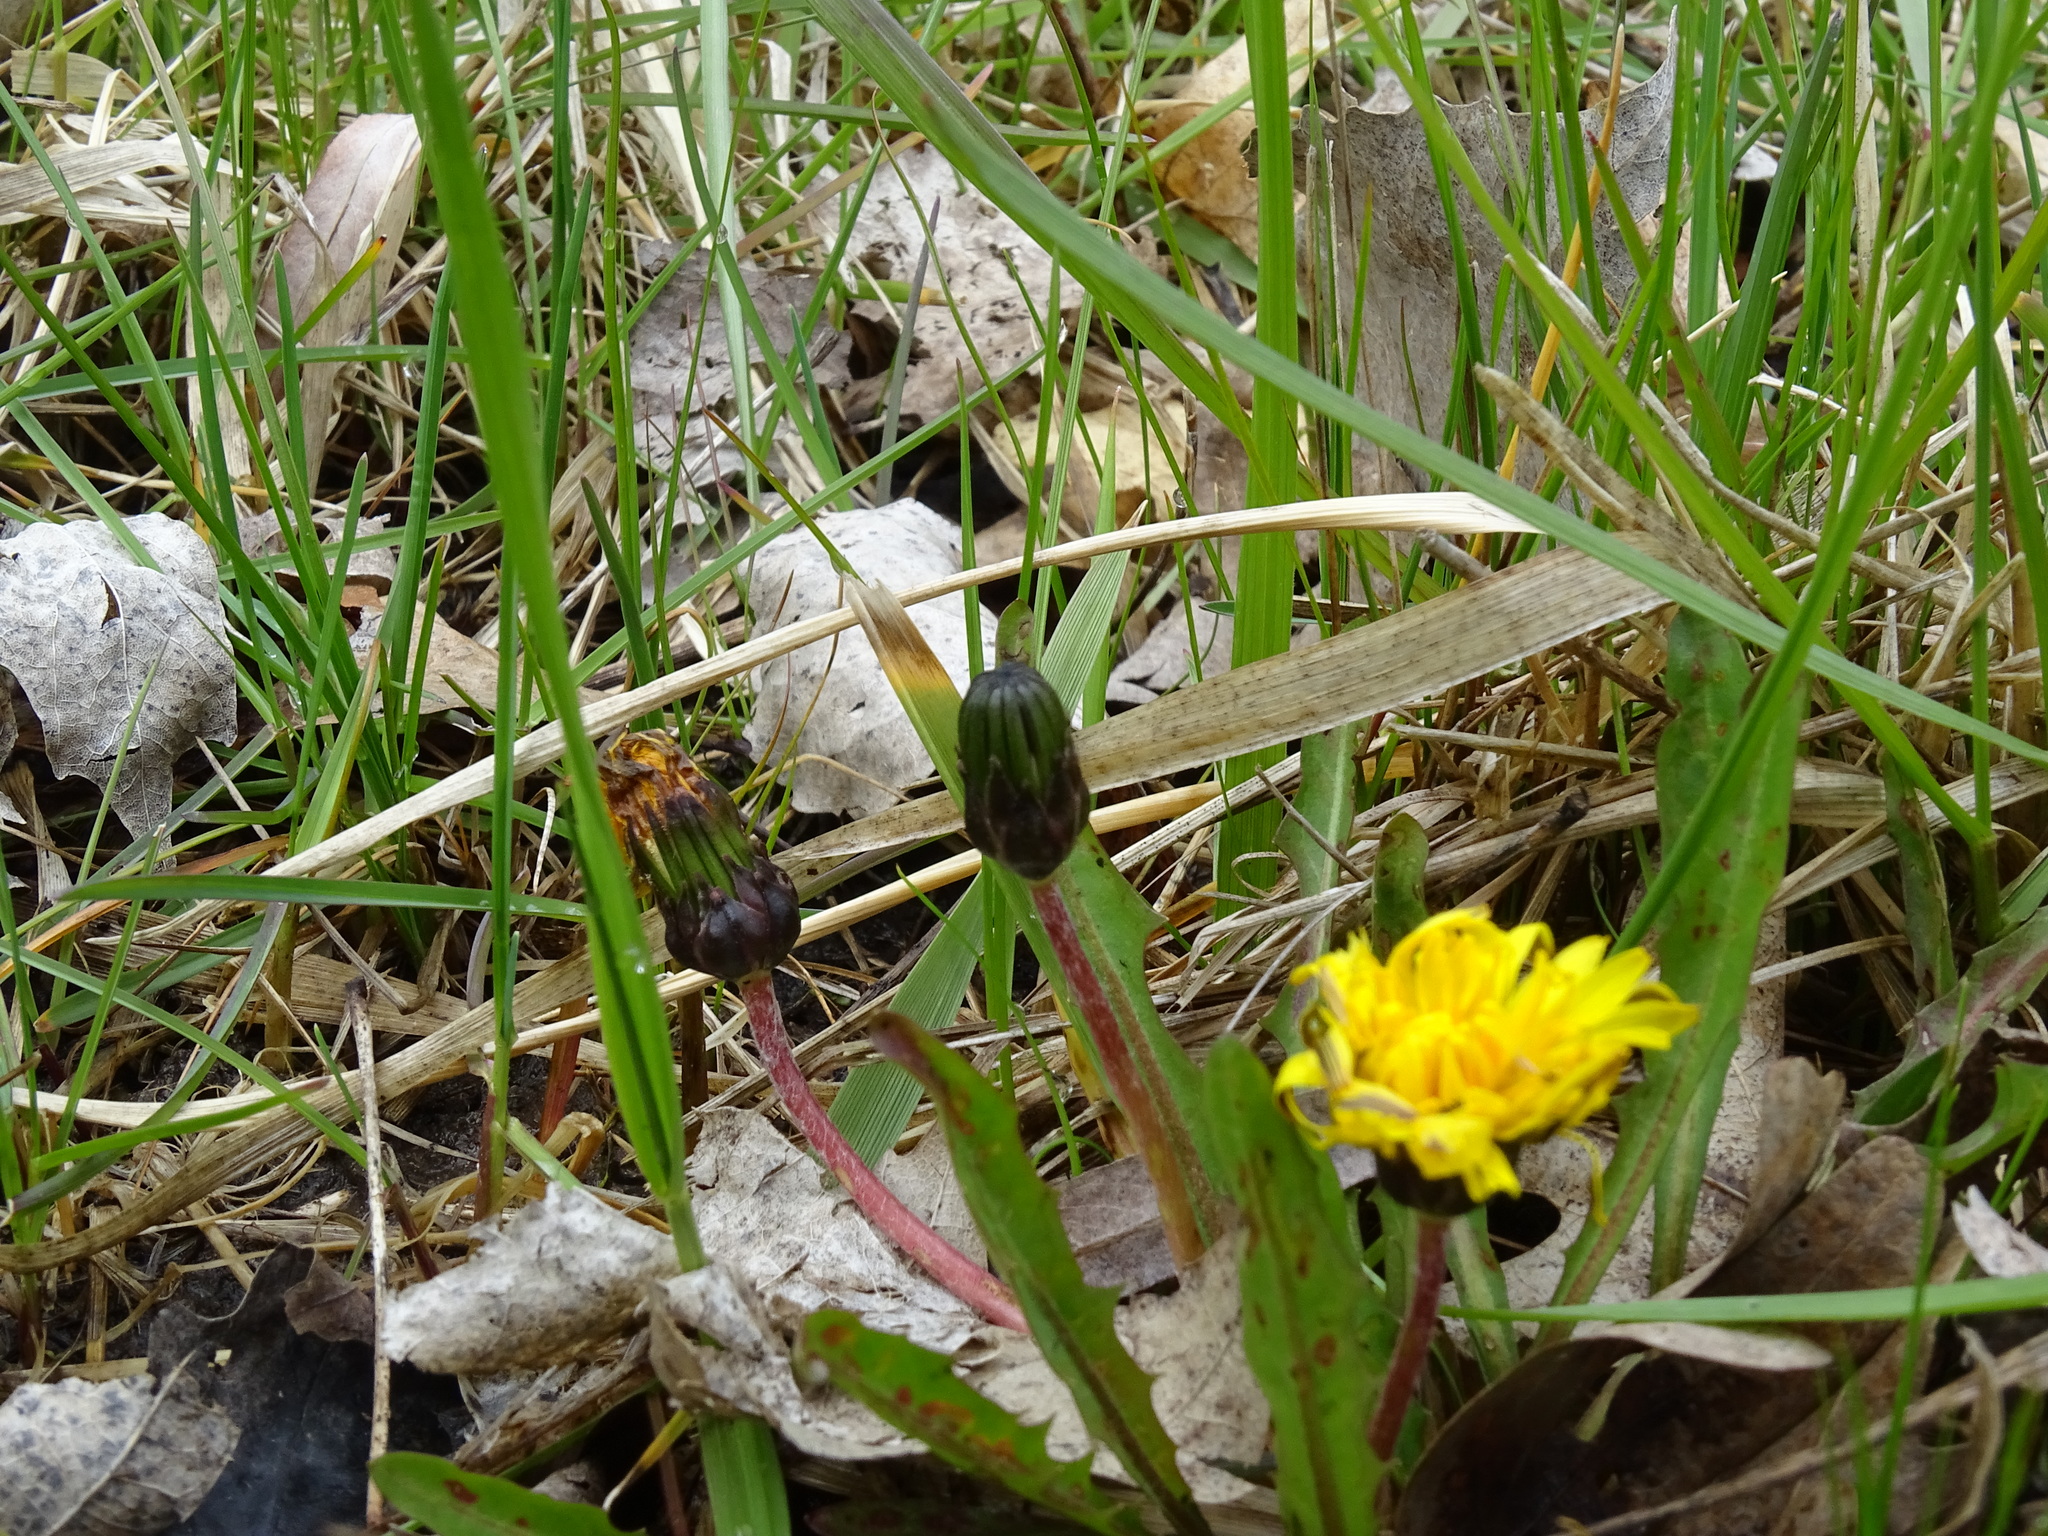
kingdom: Plantae
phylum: Tracheophyta
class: Magnoliopsida
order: Asterales
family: Asteraceae
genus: Taraxacum
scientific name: Taraxacum palustre
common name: Marsh dandelion
